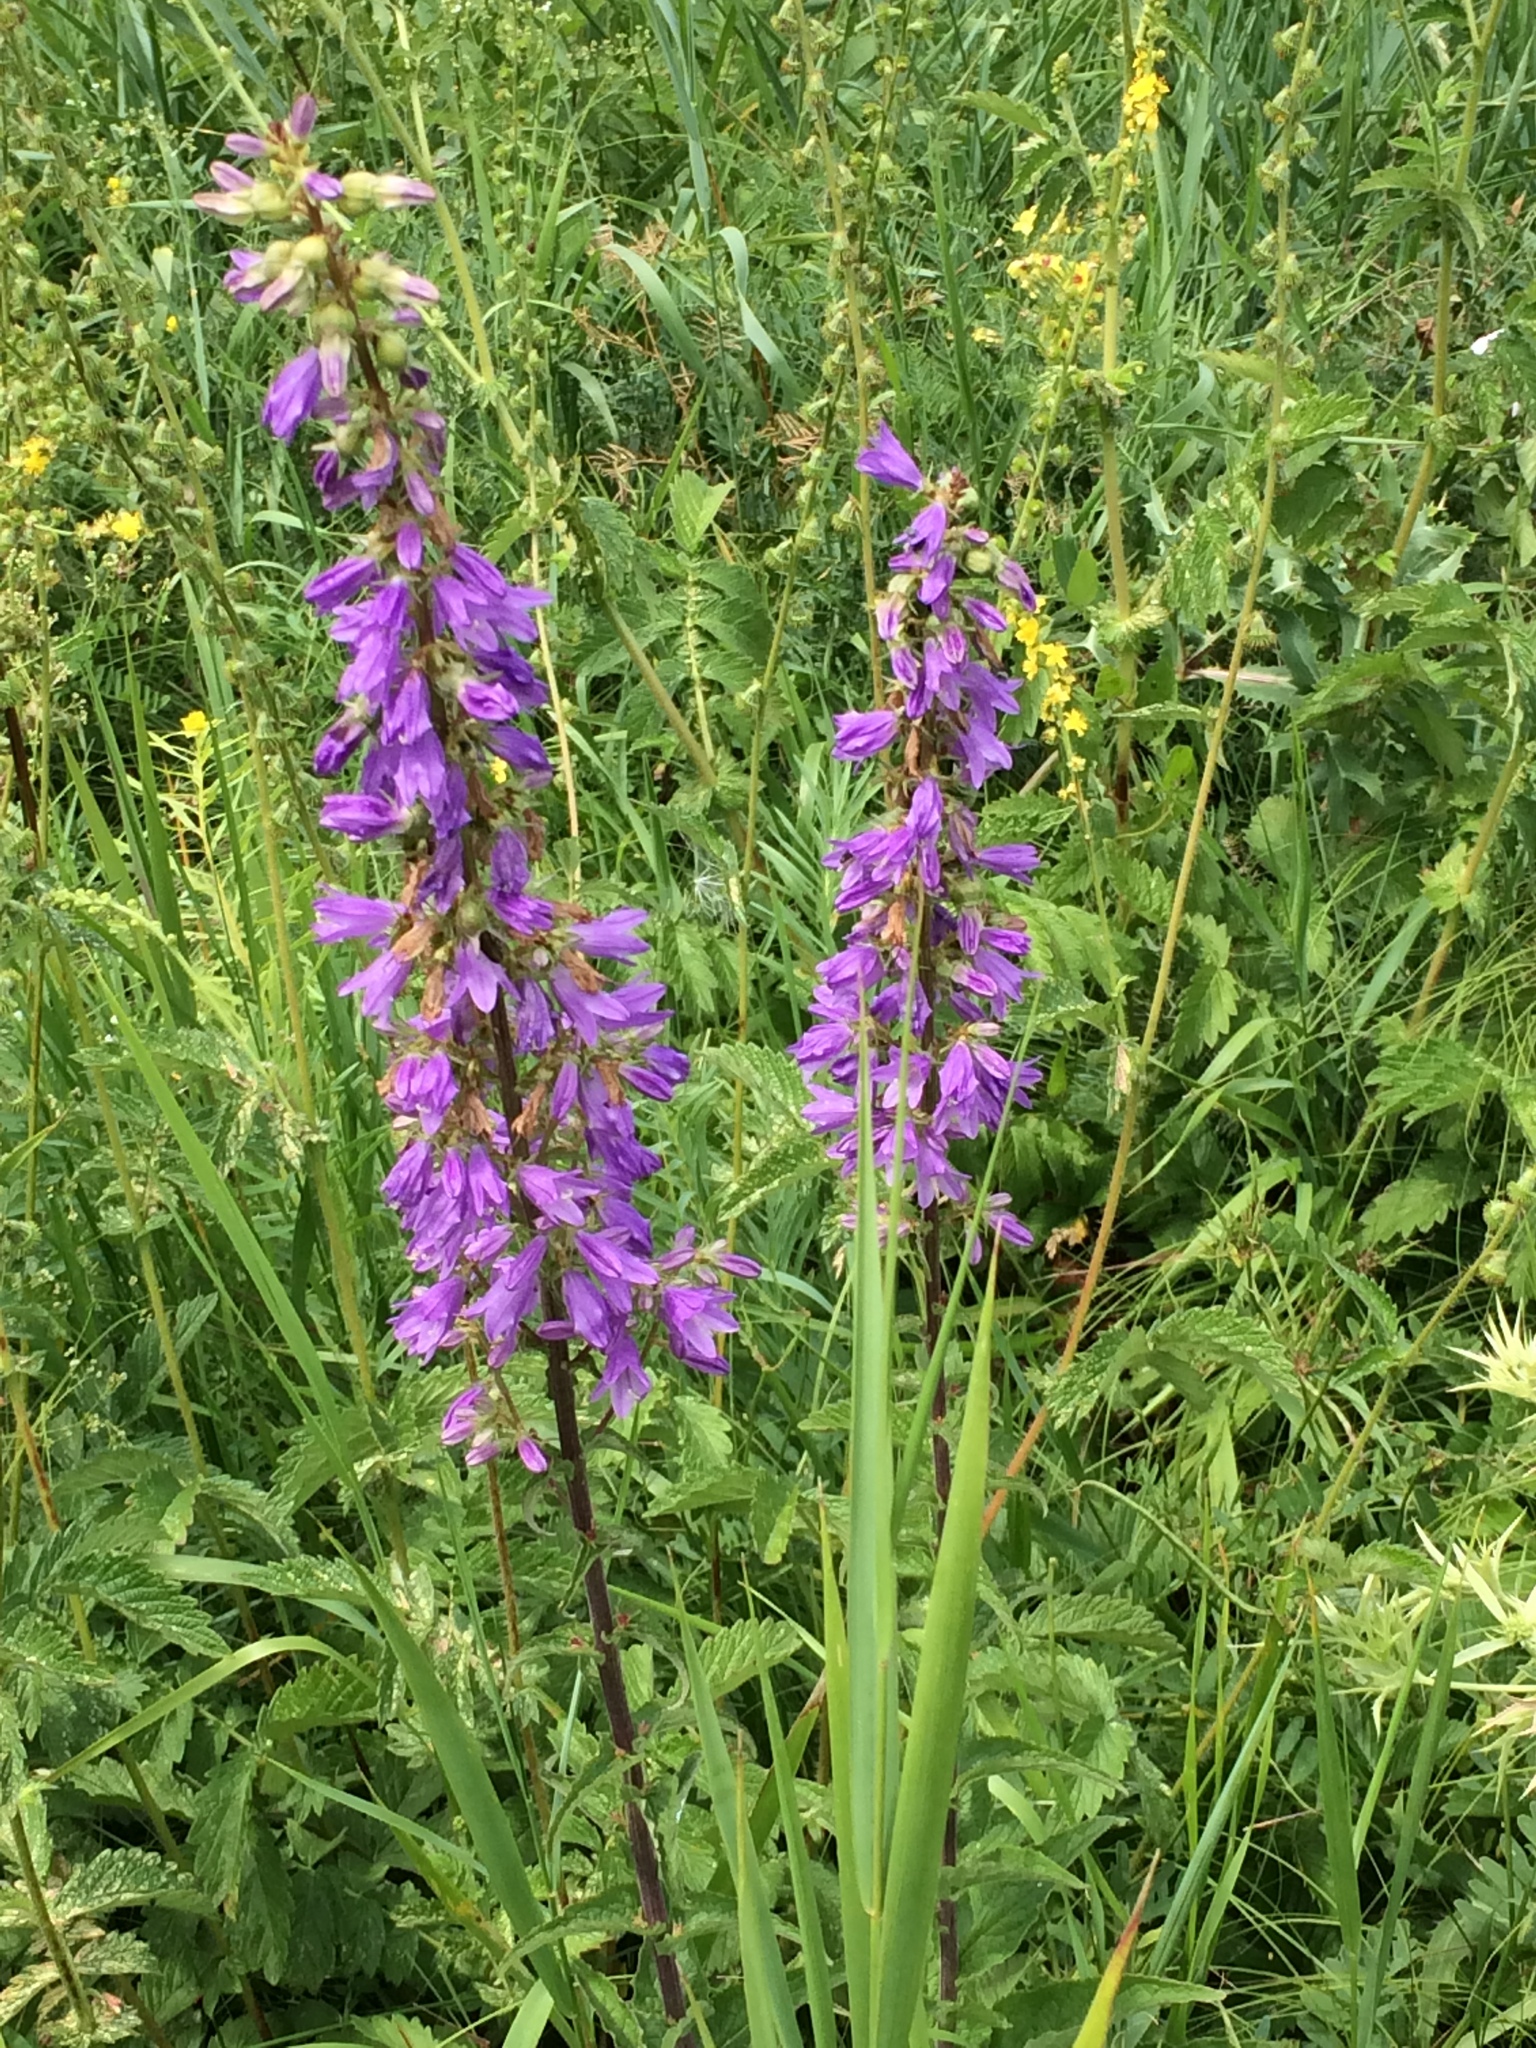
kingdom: Plantae
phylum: Tracheophyta
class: Magnoliopsida
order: Asterales
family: Campanulaceae
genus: Campanula
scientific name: Campanula bononiensis
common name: Pale bellflower
